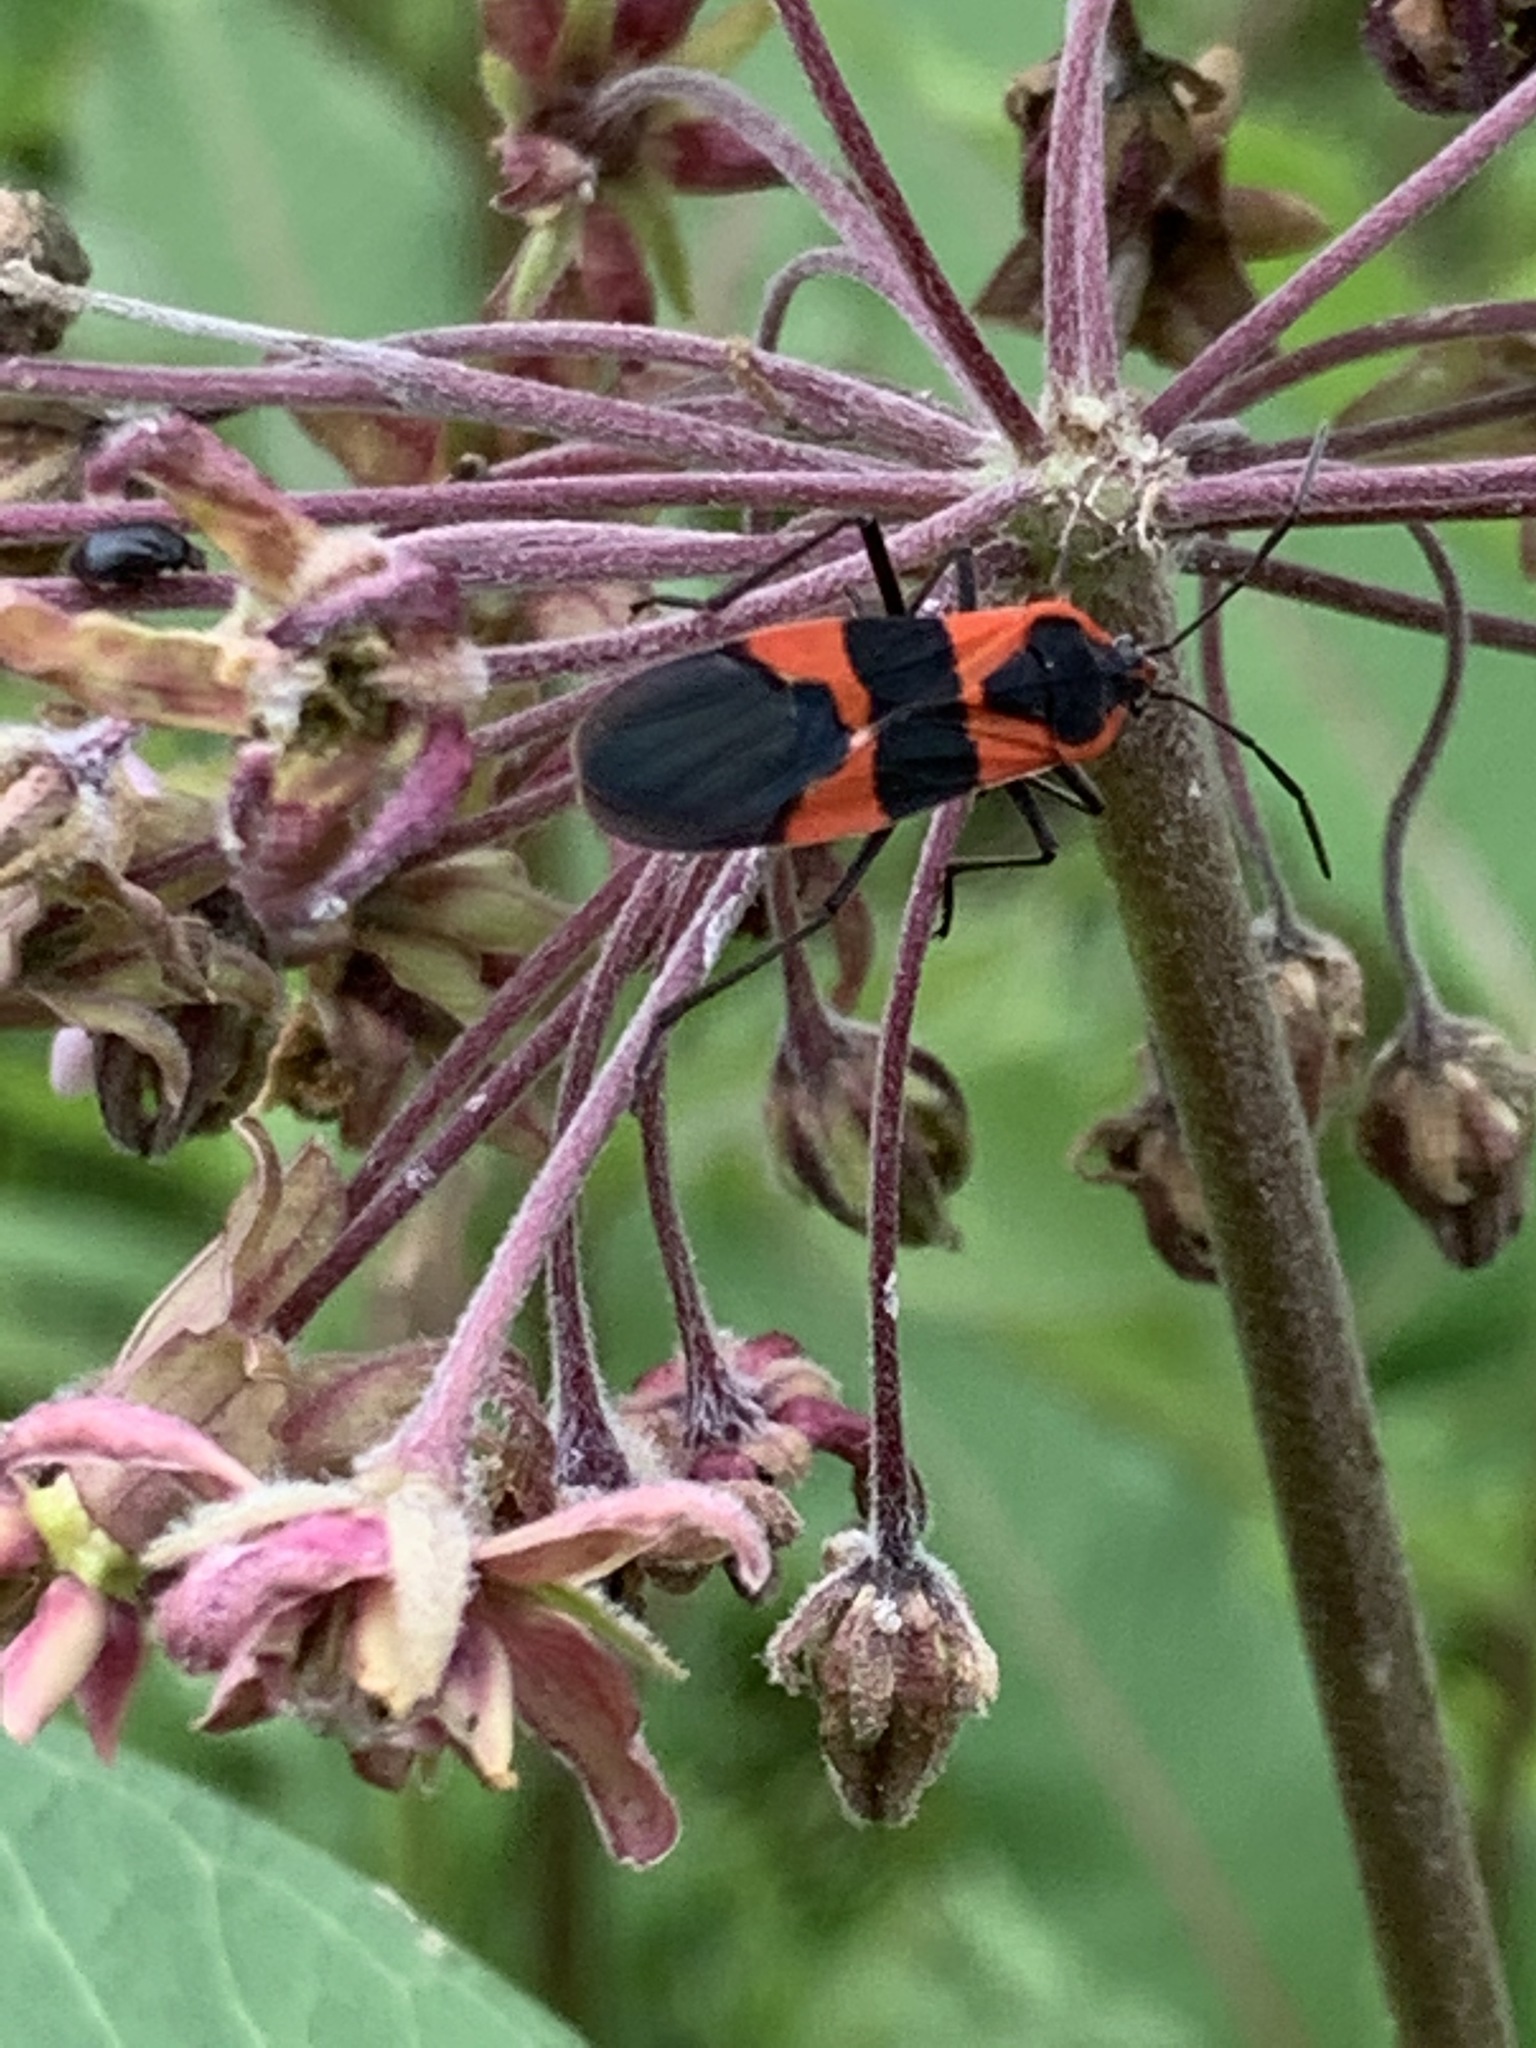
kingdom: Animalia
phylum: Arthropoda
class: Insecta
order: Hemiptera
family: Lygaeidae
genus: Oncopeltus
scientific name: Oncopeltus fasciatus
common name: Large milkweed bug
